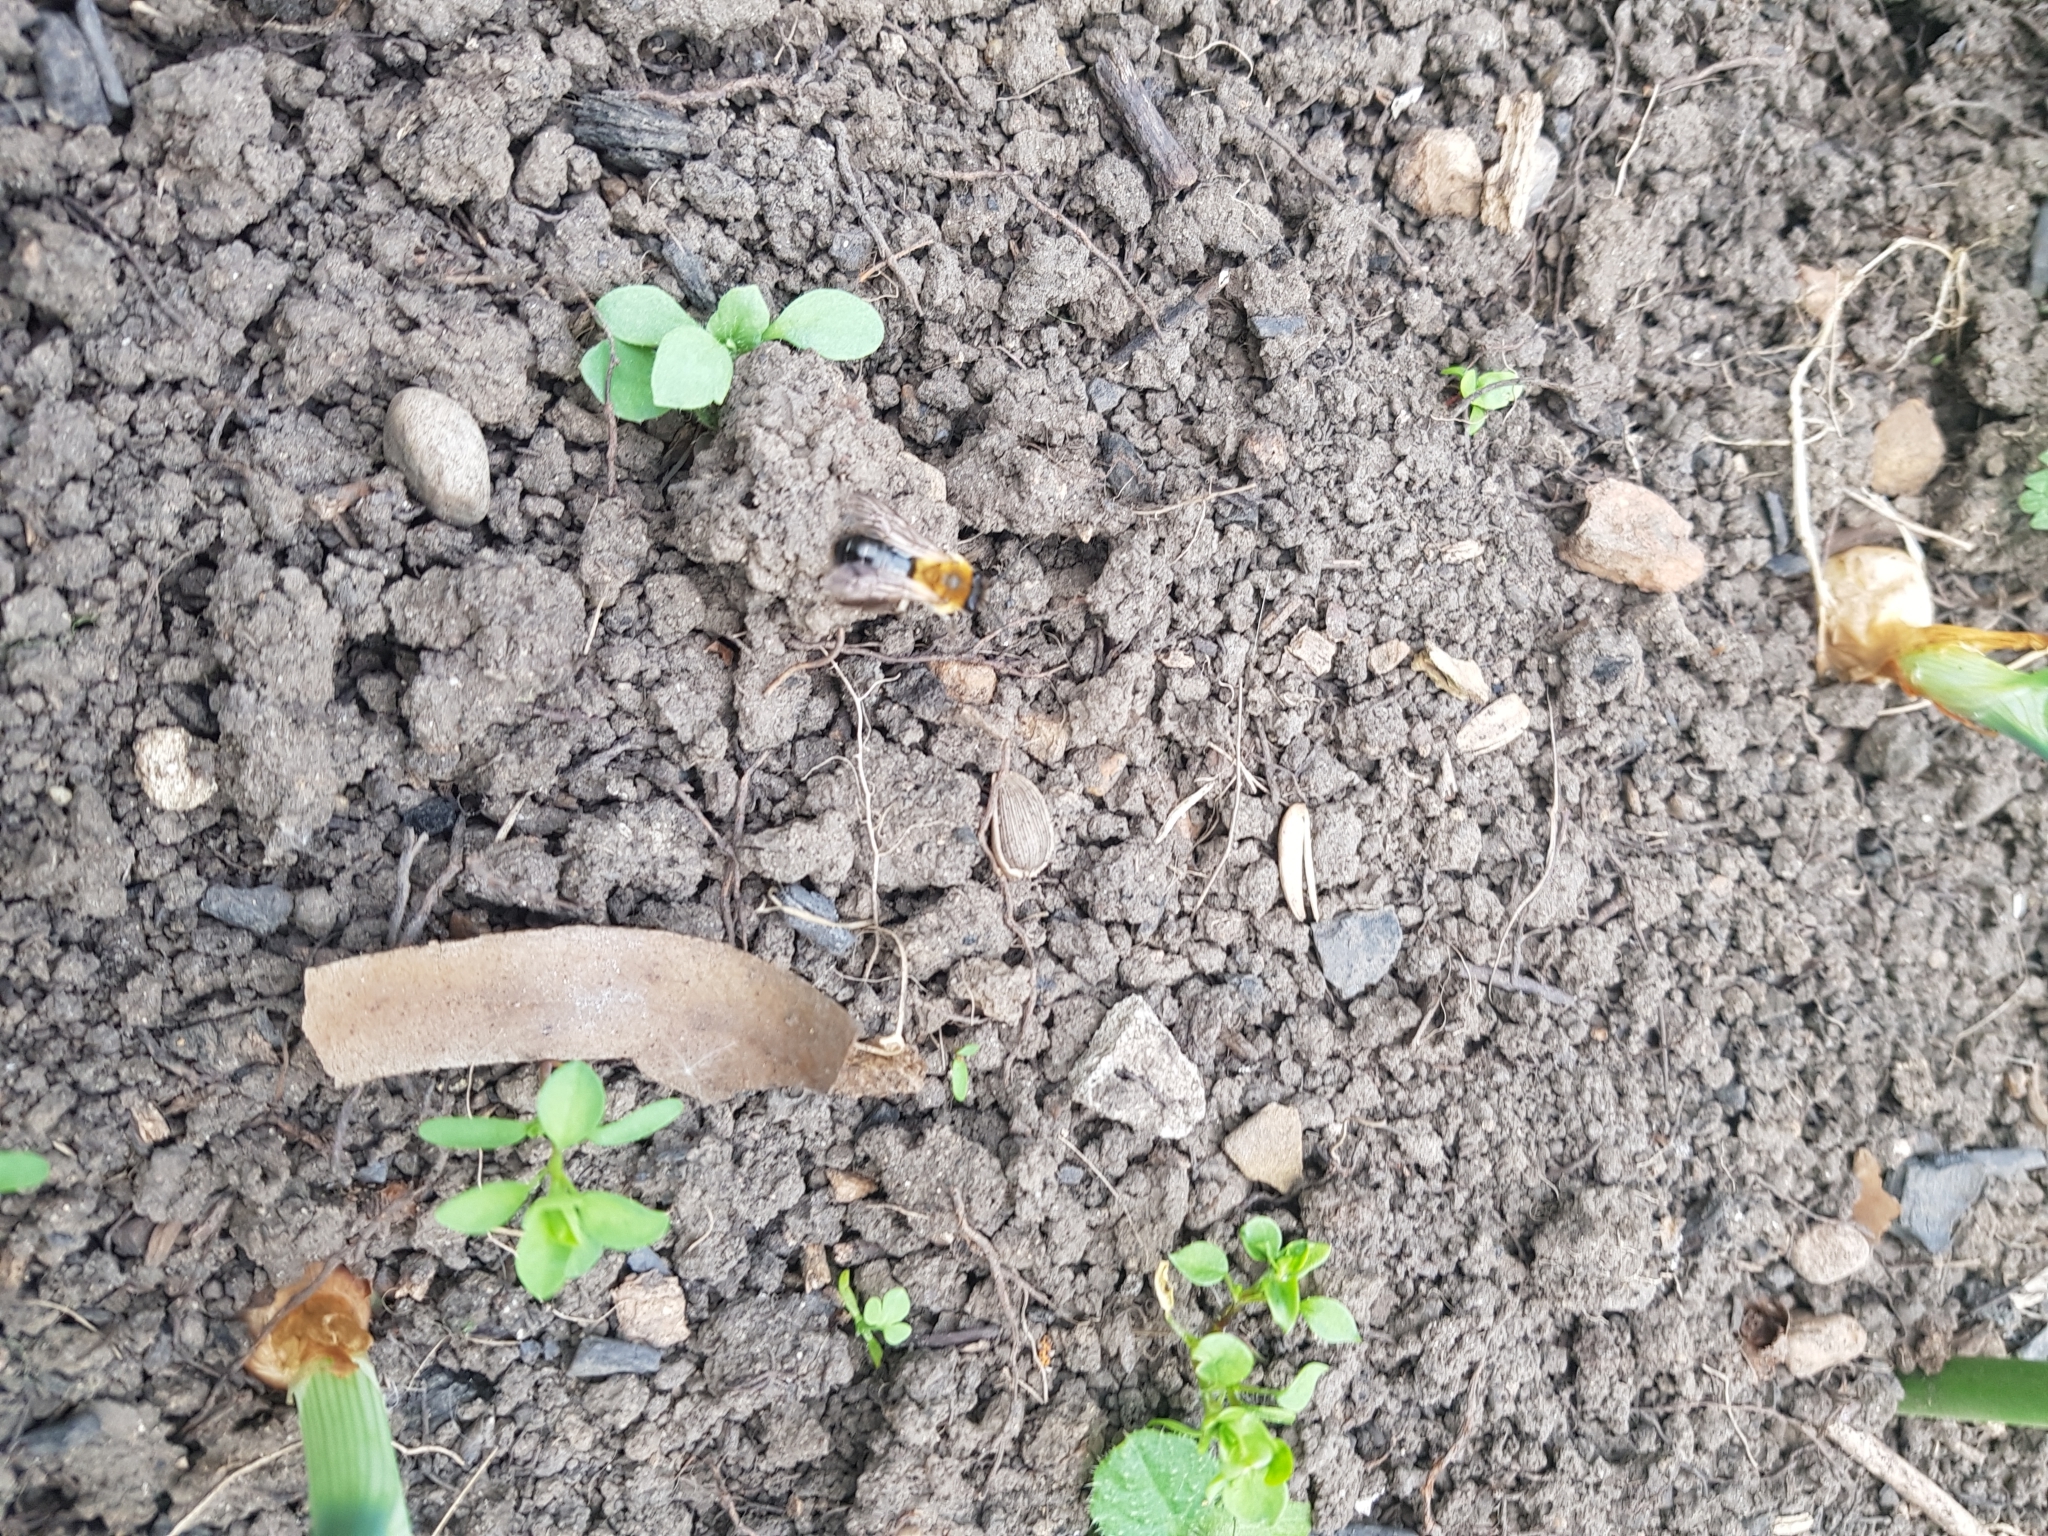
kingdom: Animalia
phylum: Arthropoda
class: Insecta
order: Hymenoptera
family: Andrenidae
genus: Andrena
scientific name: Andrena nitida
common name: Grey-patched mining bee
